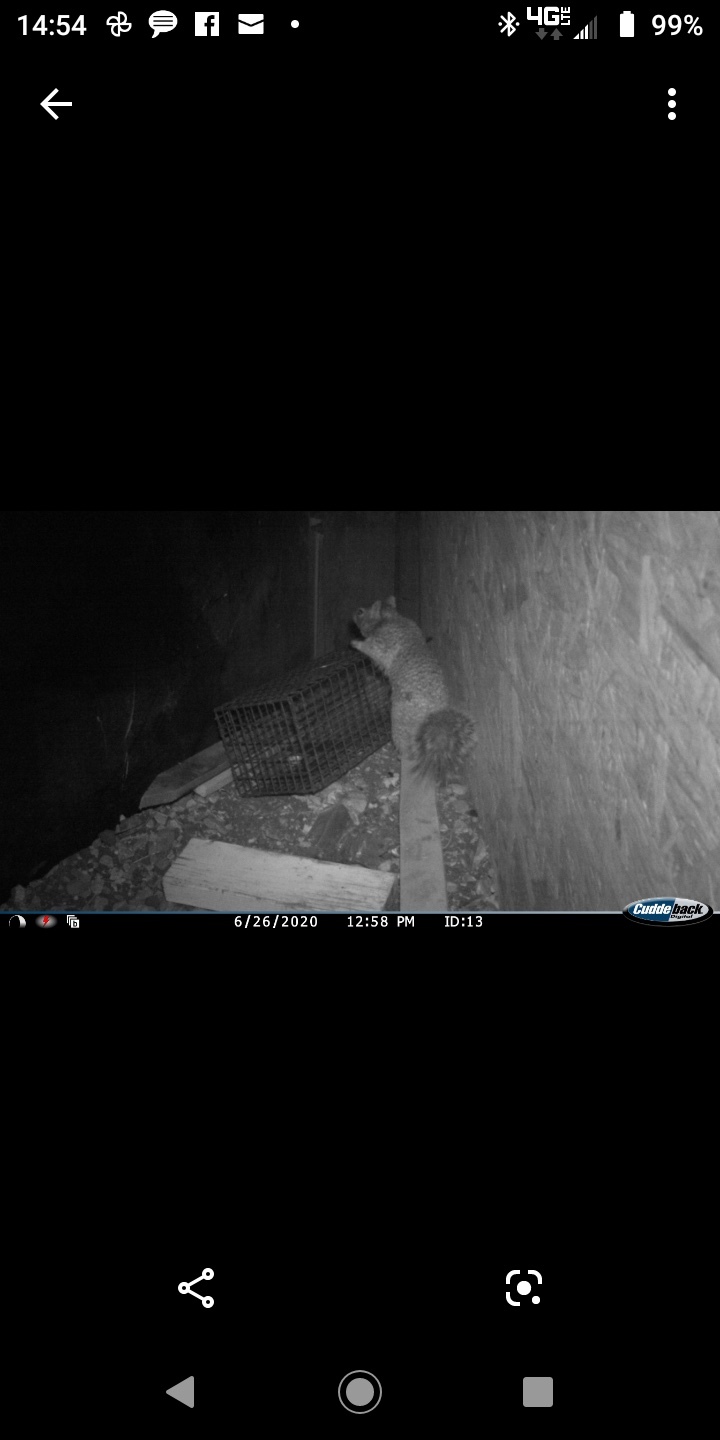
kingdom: Animalia
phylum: Chordata
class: Mammalia
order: Rodentia
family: Sciuridae
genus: Otospermophilus
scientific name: Otospermophilus variegatus
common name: Rock squirrel
